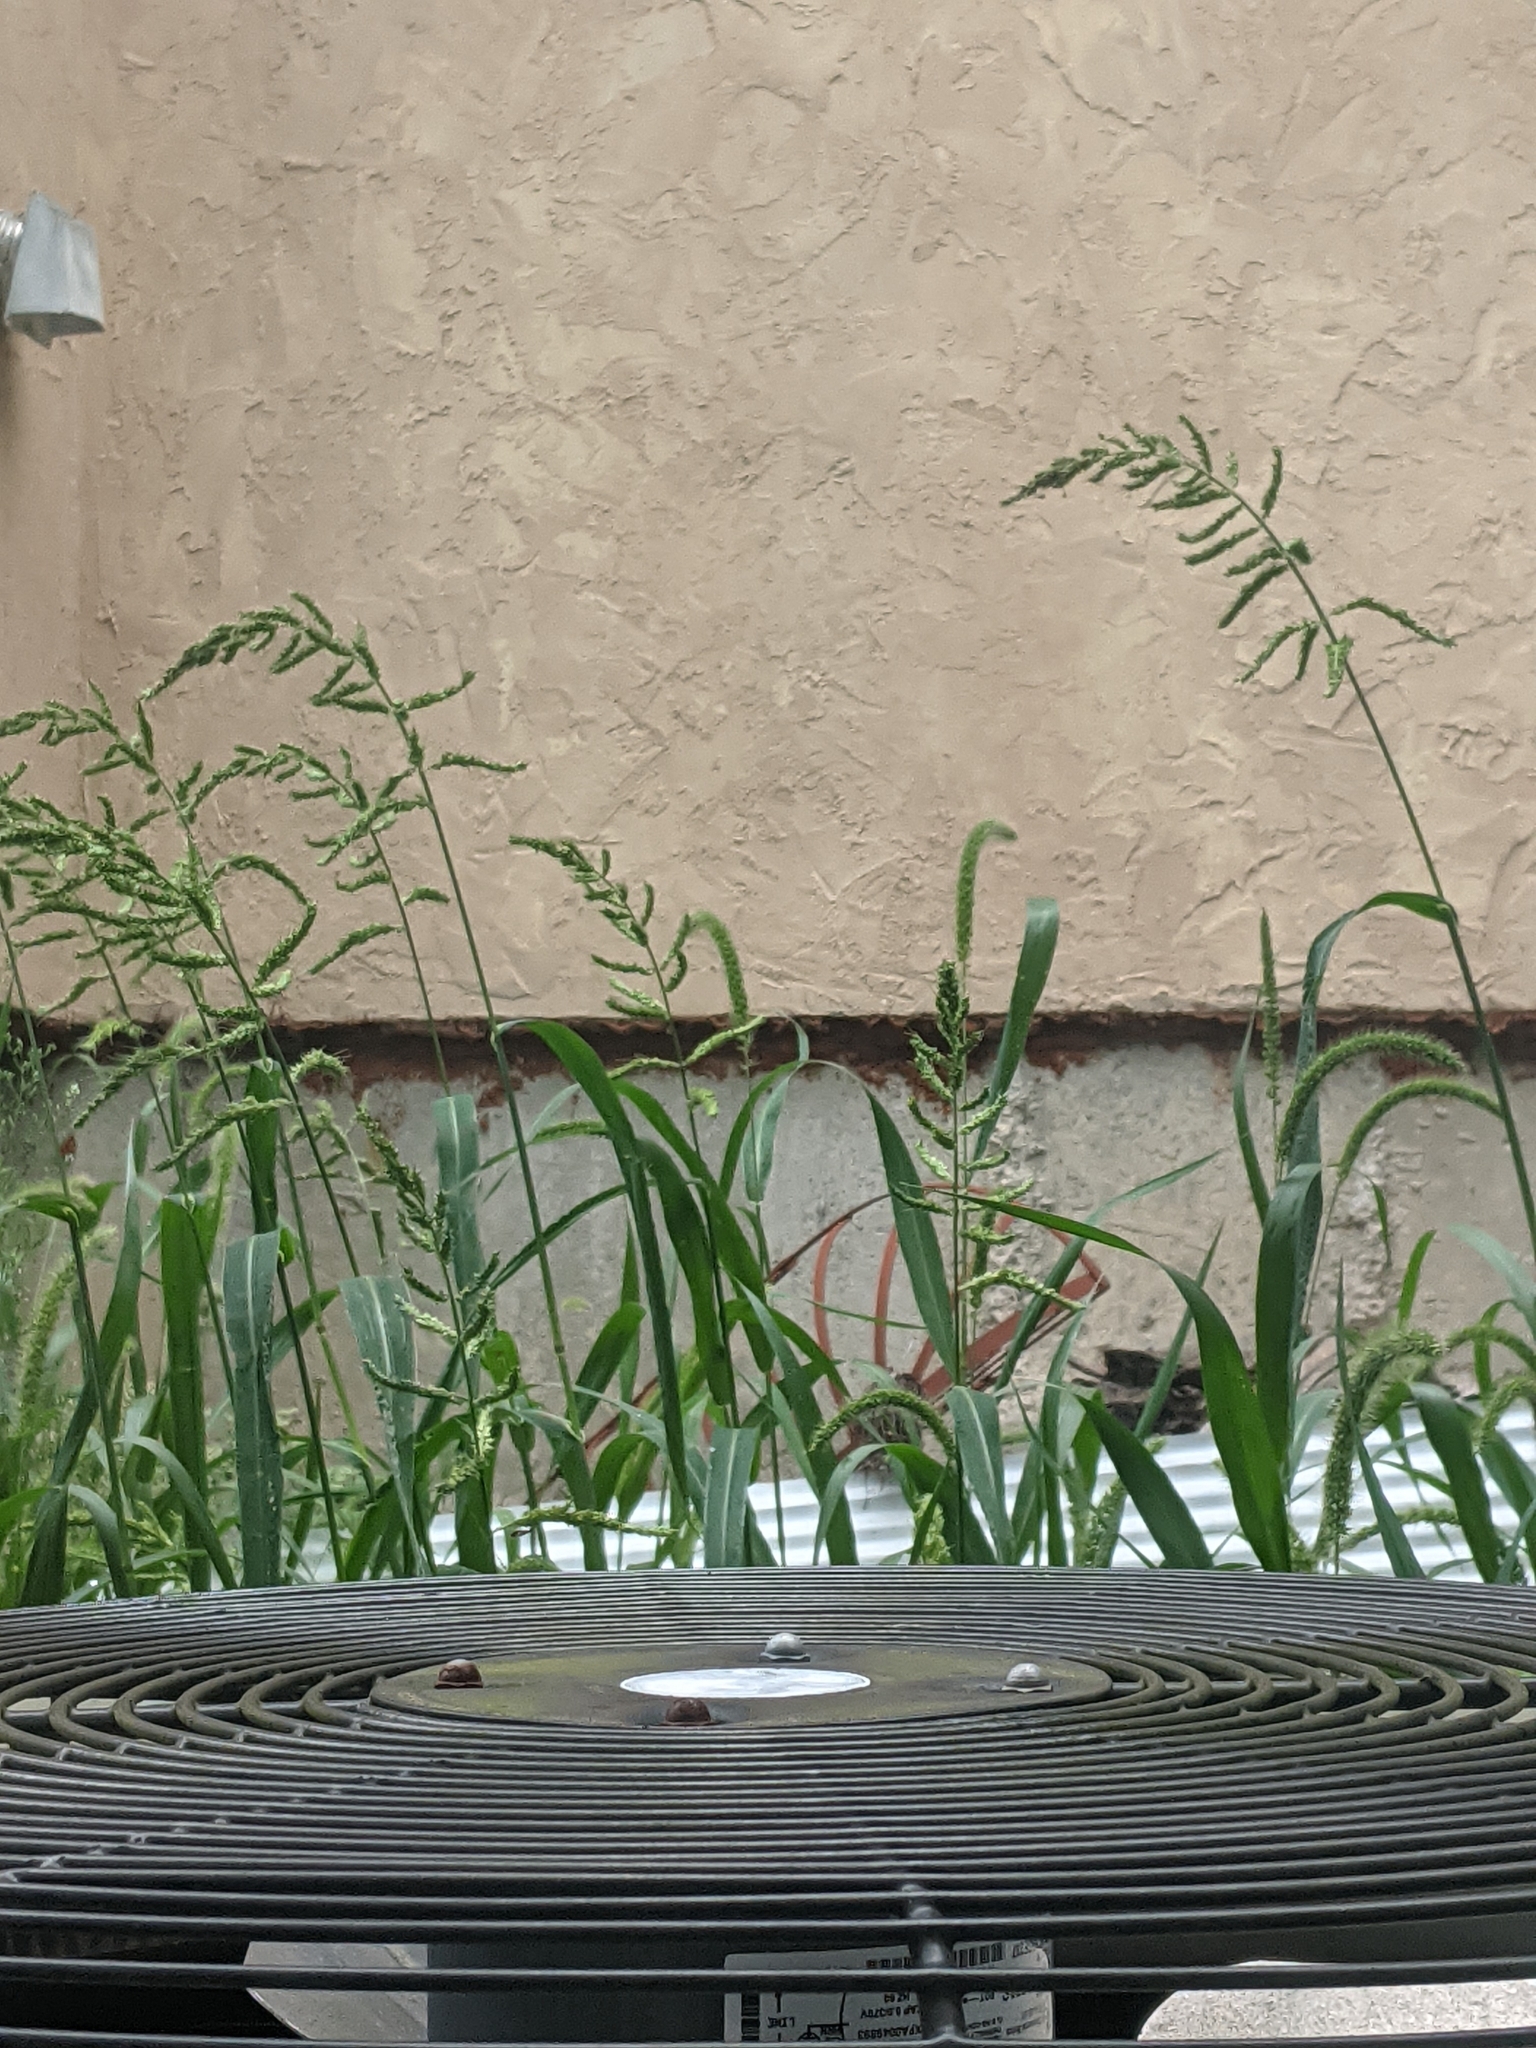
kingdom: Plantae
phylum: Tracheophyta
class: Liliopsida
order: Poales
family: Poaceae
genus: Echinochloa
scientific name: Echinochloa crus-galli
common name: Cockspur
